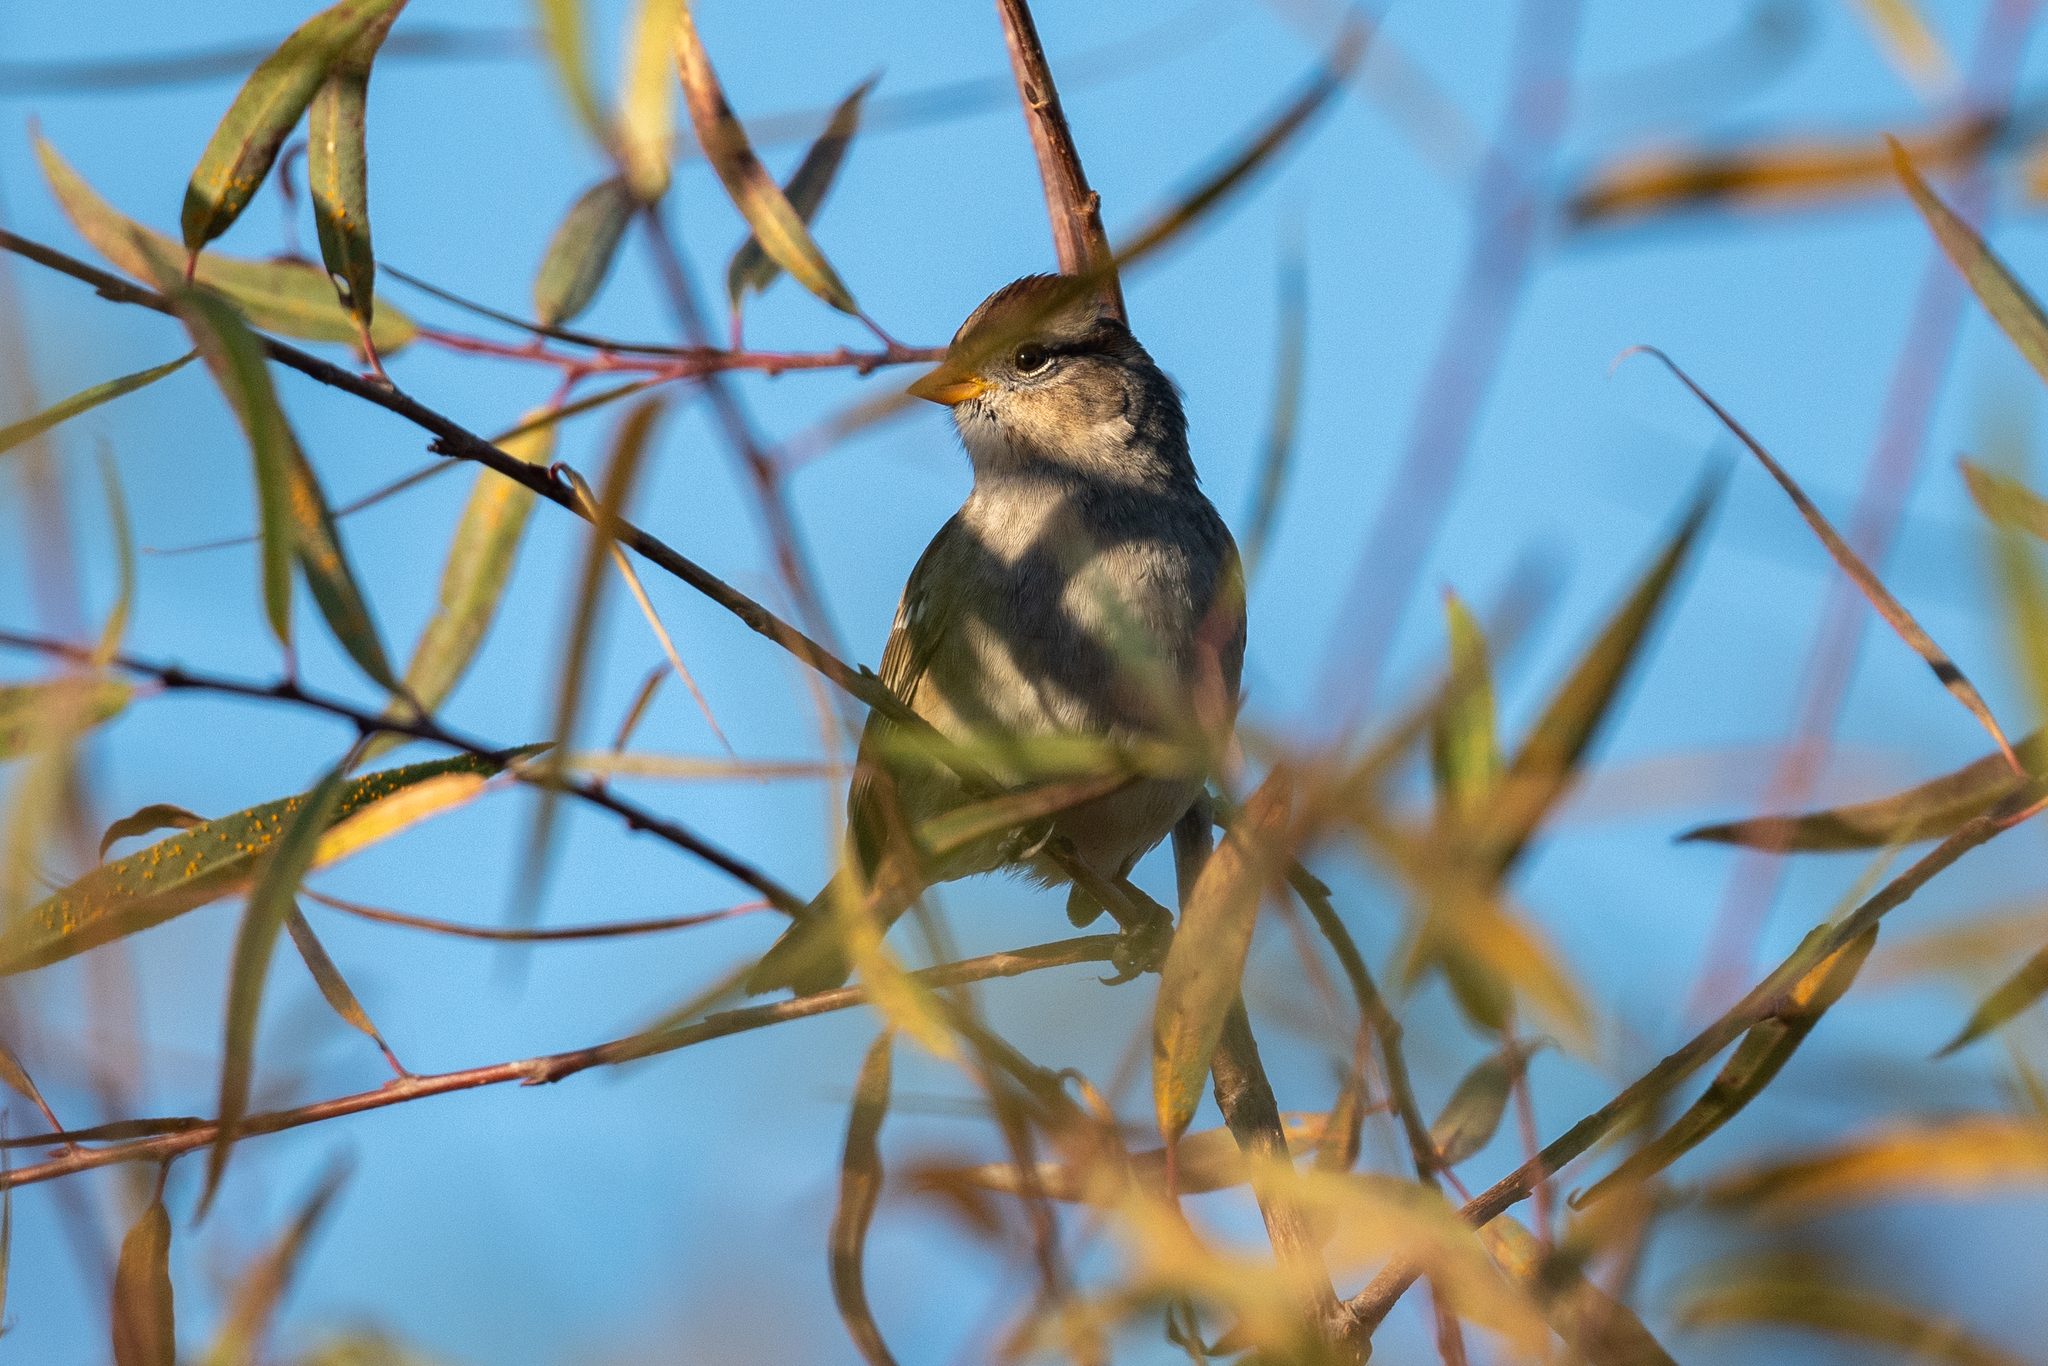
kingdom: Animalia
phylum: Chordata
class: Aves
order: Passeriformes
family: Passerellidae
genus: Zonotrichia
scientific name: Zonotrichia leucophrys
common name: White-crowned sparrow
